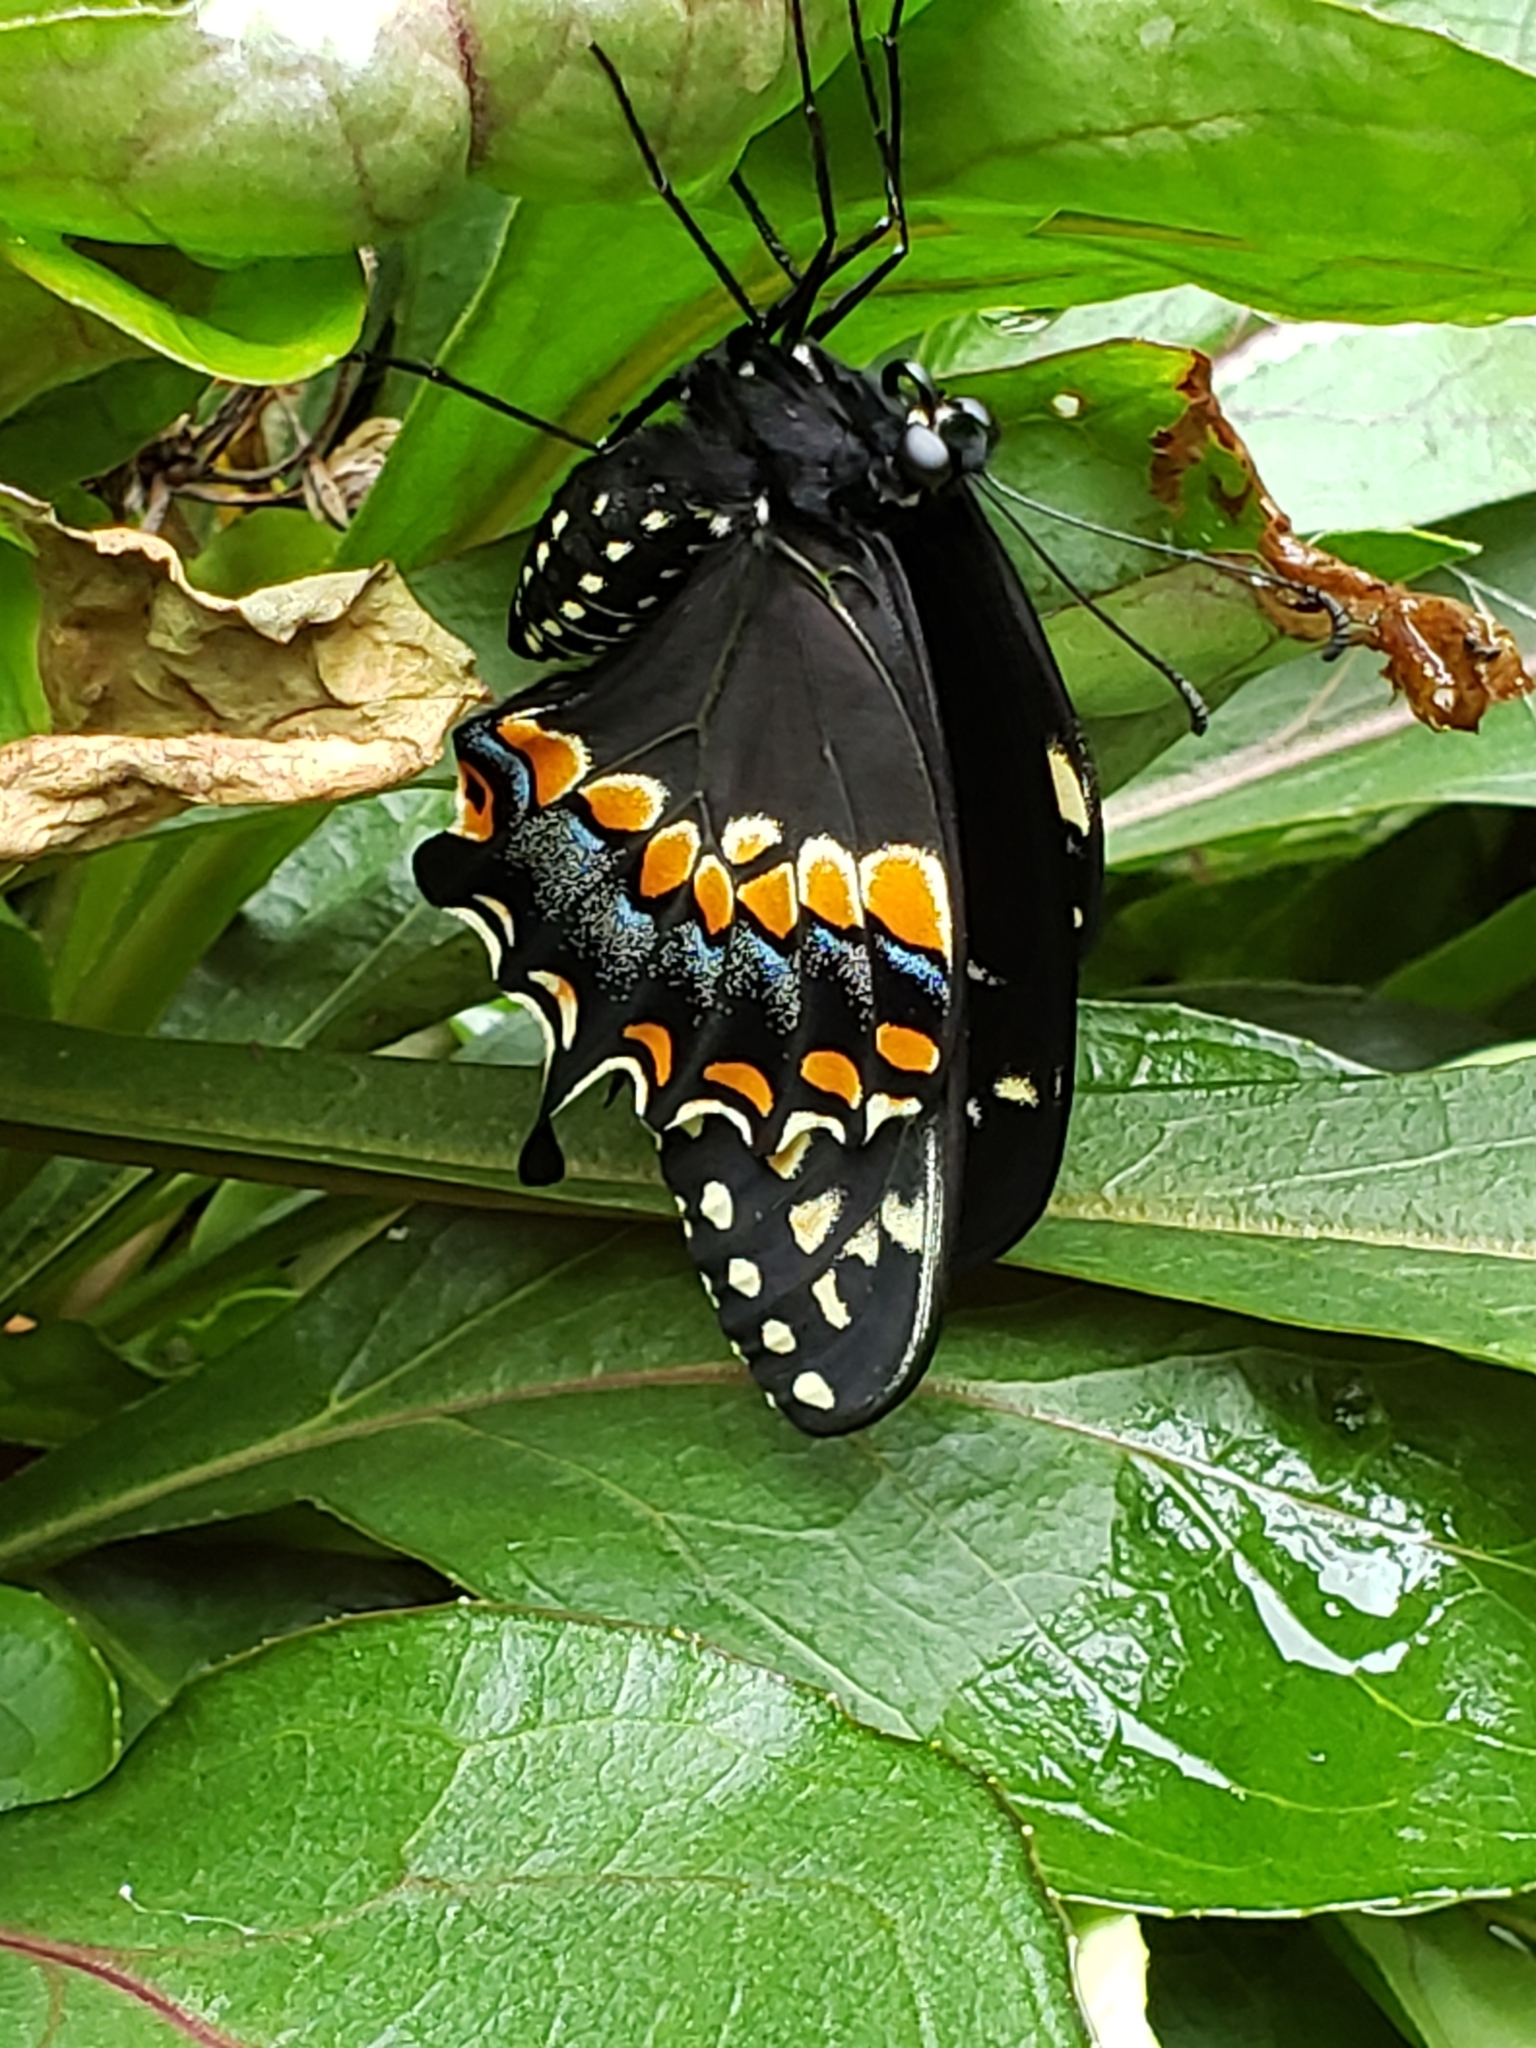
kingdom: Animalia
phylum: Arthropoda
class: Insecta
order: Lepidoptera
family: Papilionidae
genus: Papilio
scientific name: Papilio polyxenes
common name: Black swallowtail
